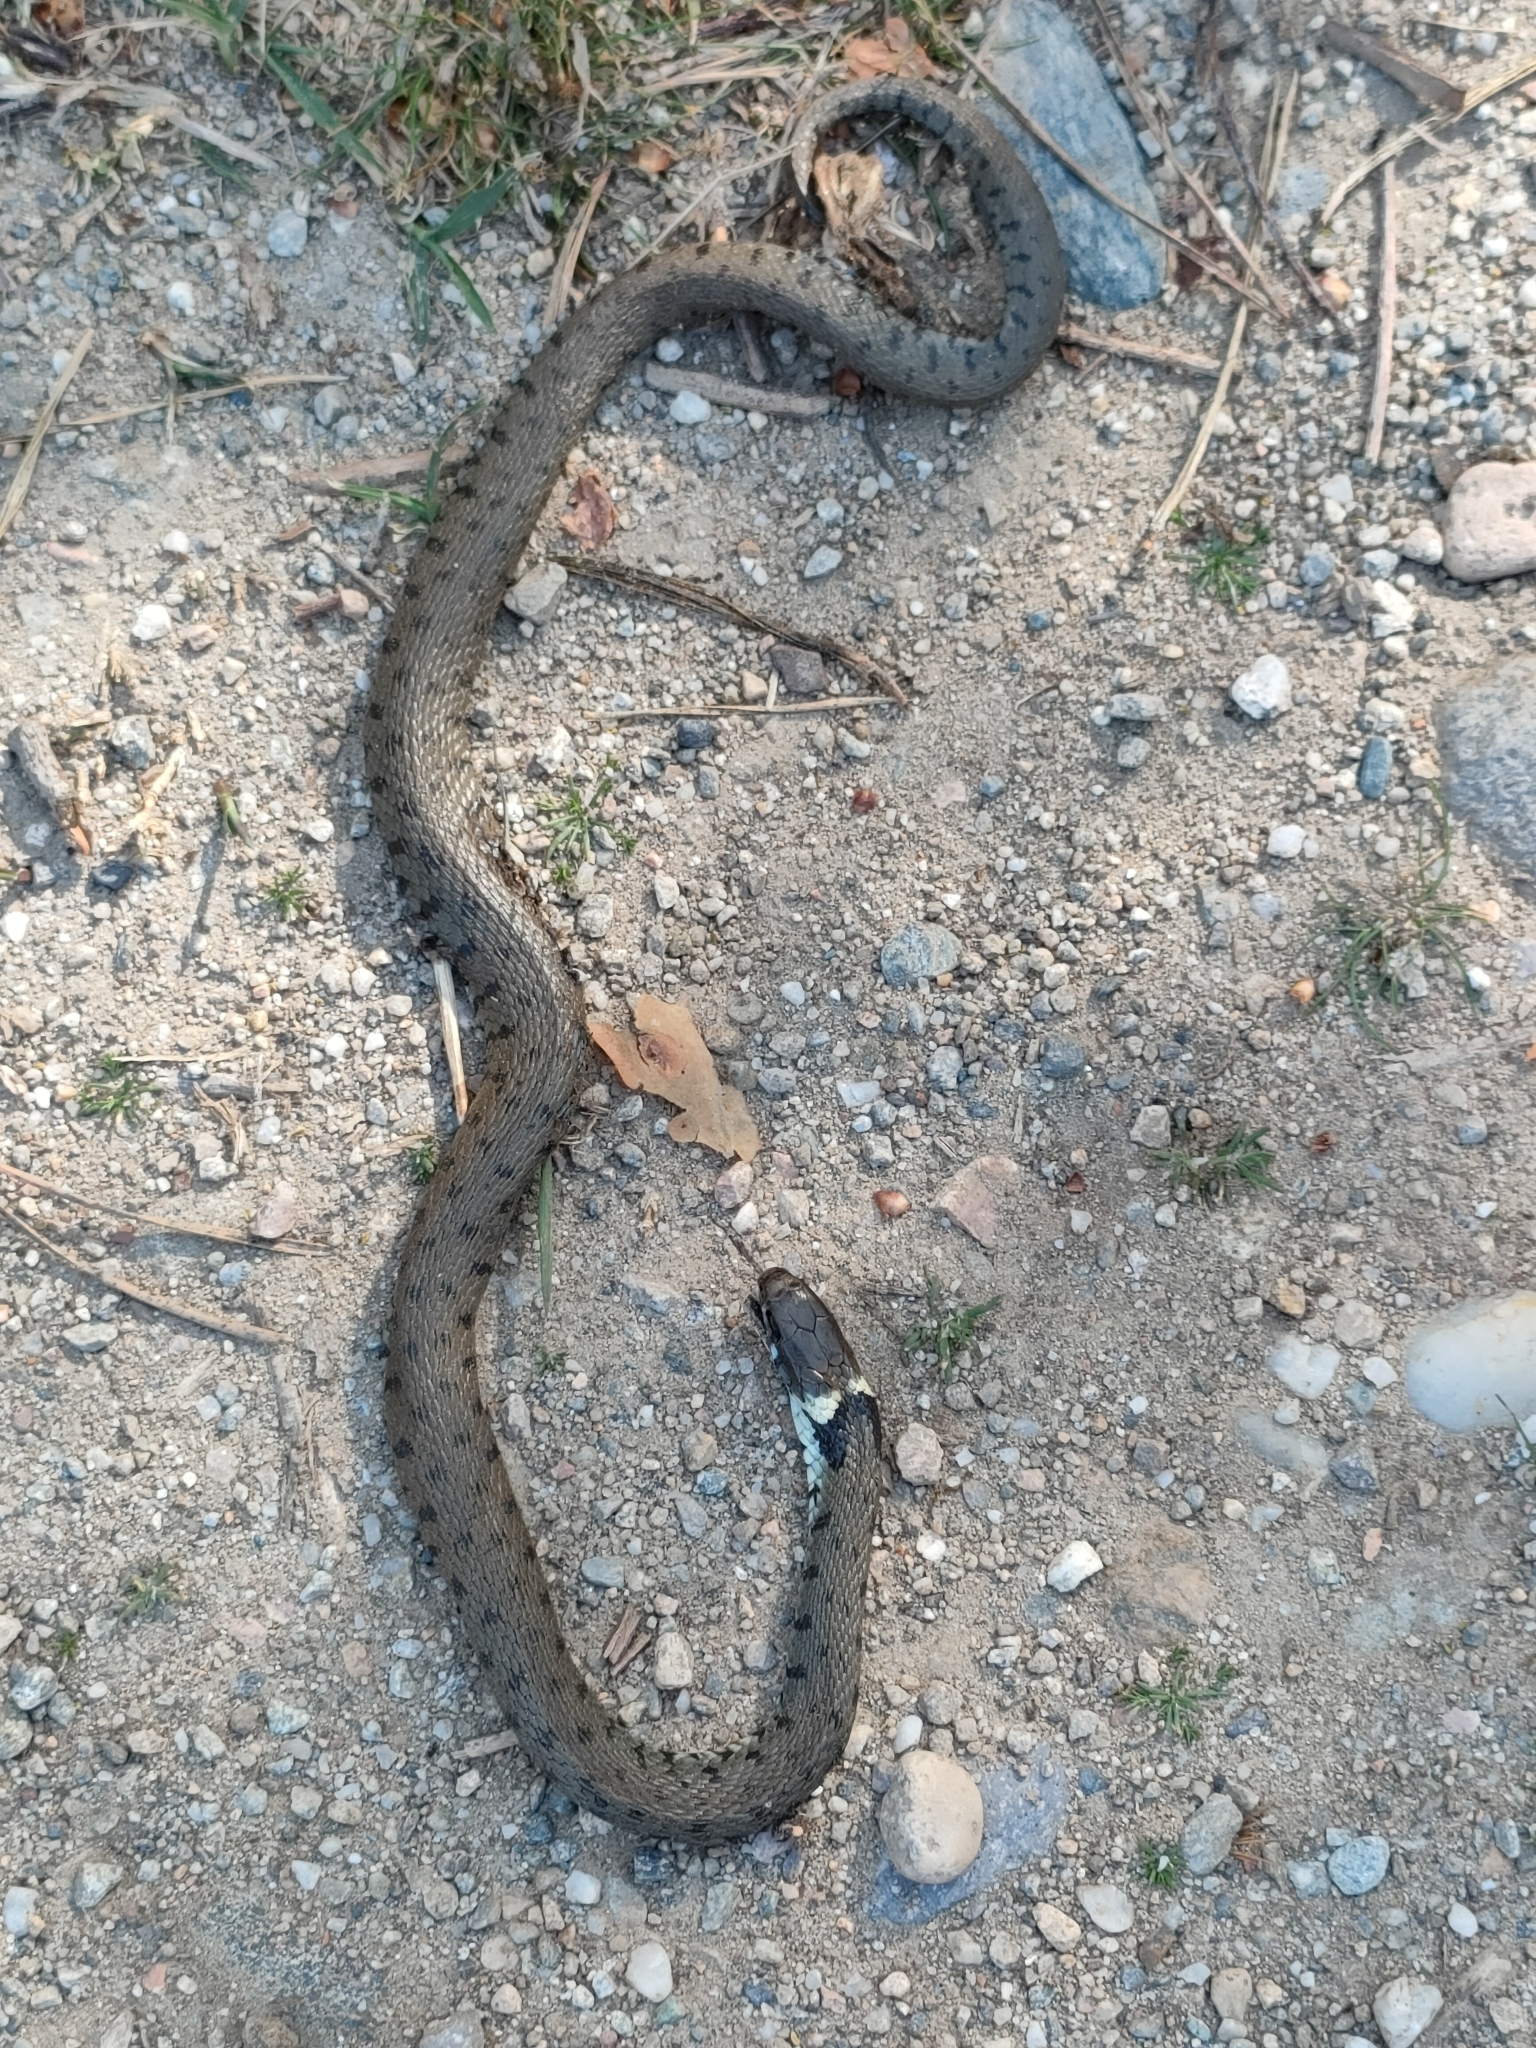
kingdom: Animalia
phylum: Chordata
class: Squamata
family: Colubridae
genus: Natrix
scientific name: Natrix helvetica
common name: Banded grass snake
